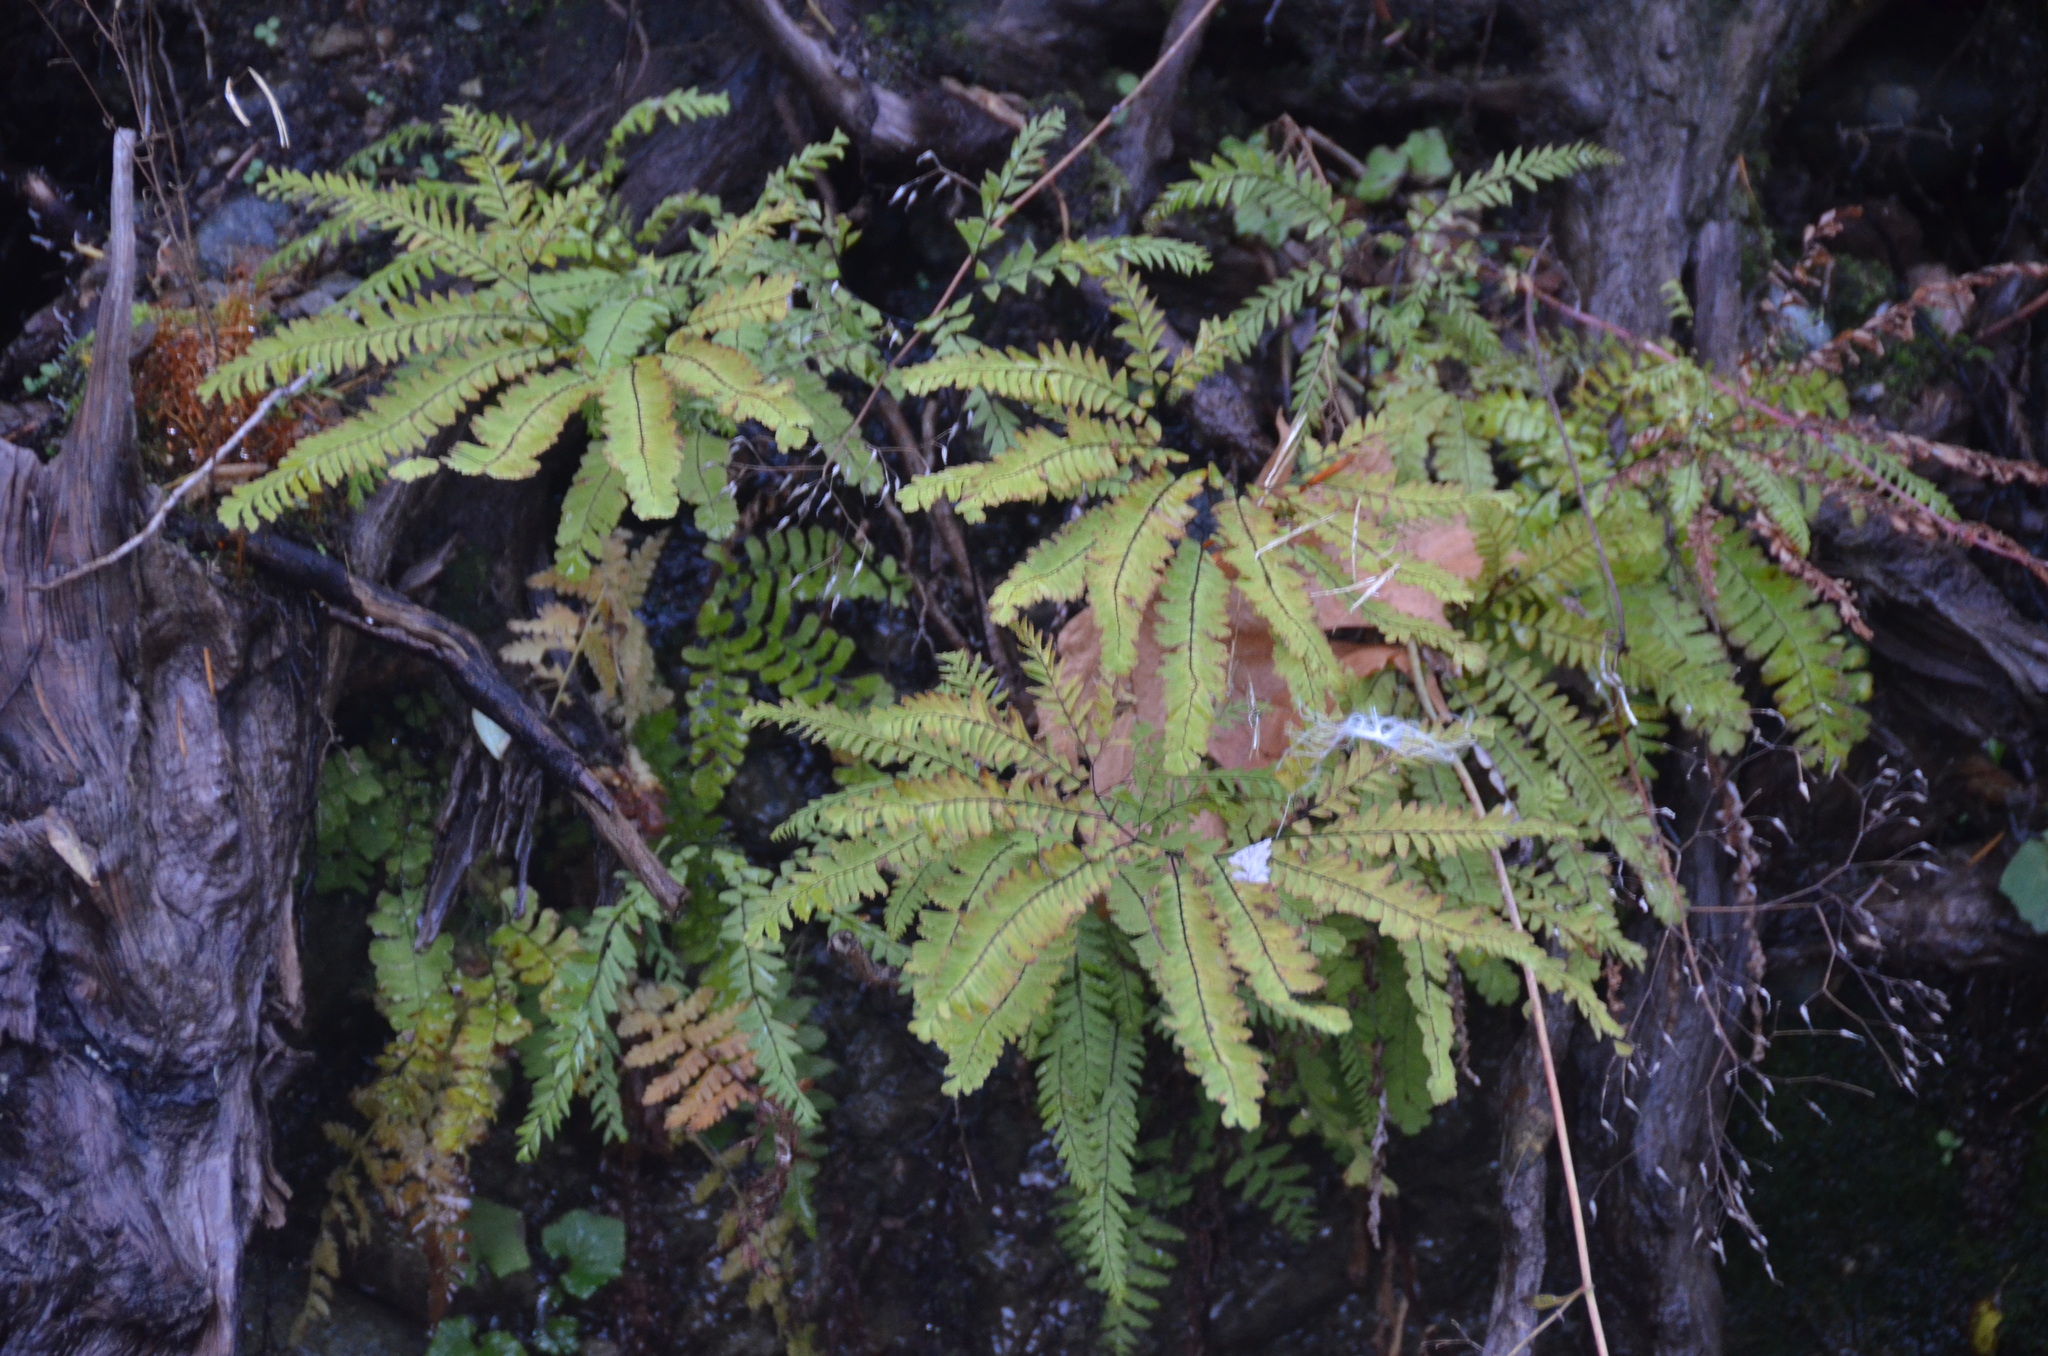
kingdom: Plantae
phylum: Tracheophyta
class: Polypodiopsida
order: Polypodiales
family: Pteridaceae
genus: Adiantum
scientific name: Adiantum aleuticum
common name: Aleutian maidenhair fern
